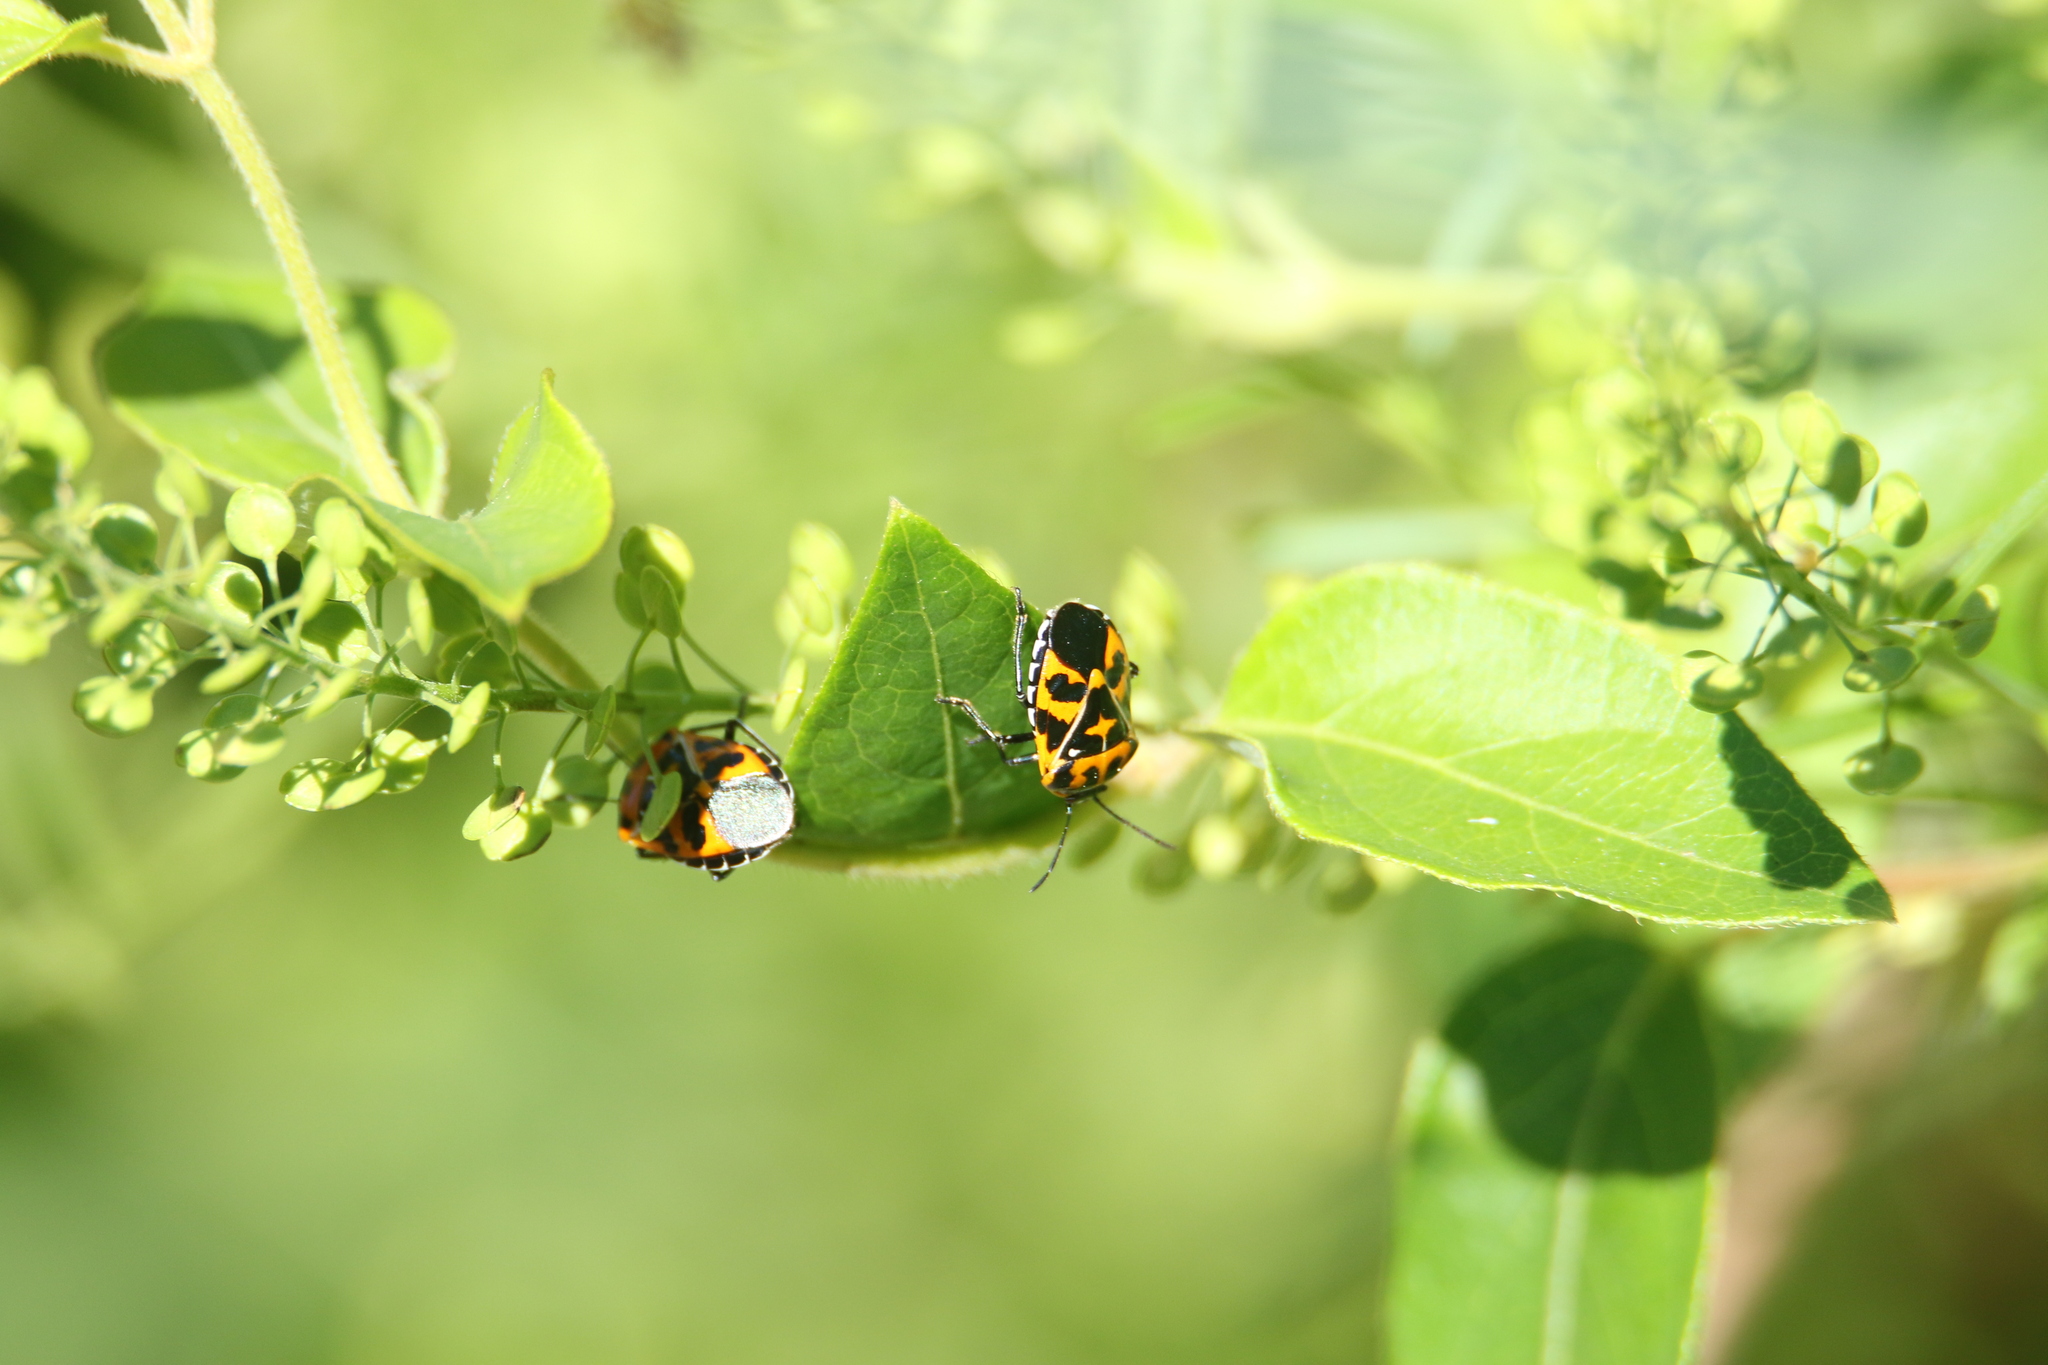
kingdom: Animalia
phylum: Arthropoda
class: Insecta
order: Hemiptera
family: Pentatomidae
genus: Murgantia
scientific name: Murgantia histrionica
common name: Harlequin bug
